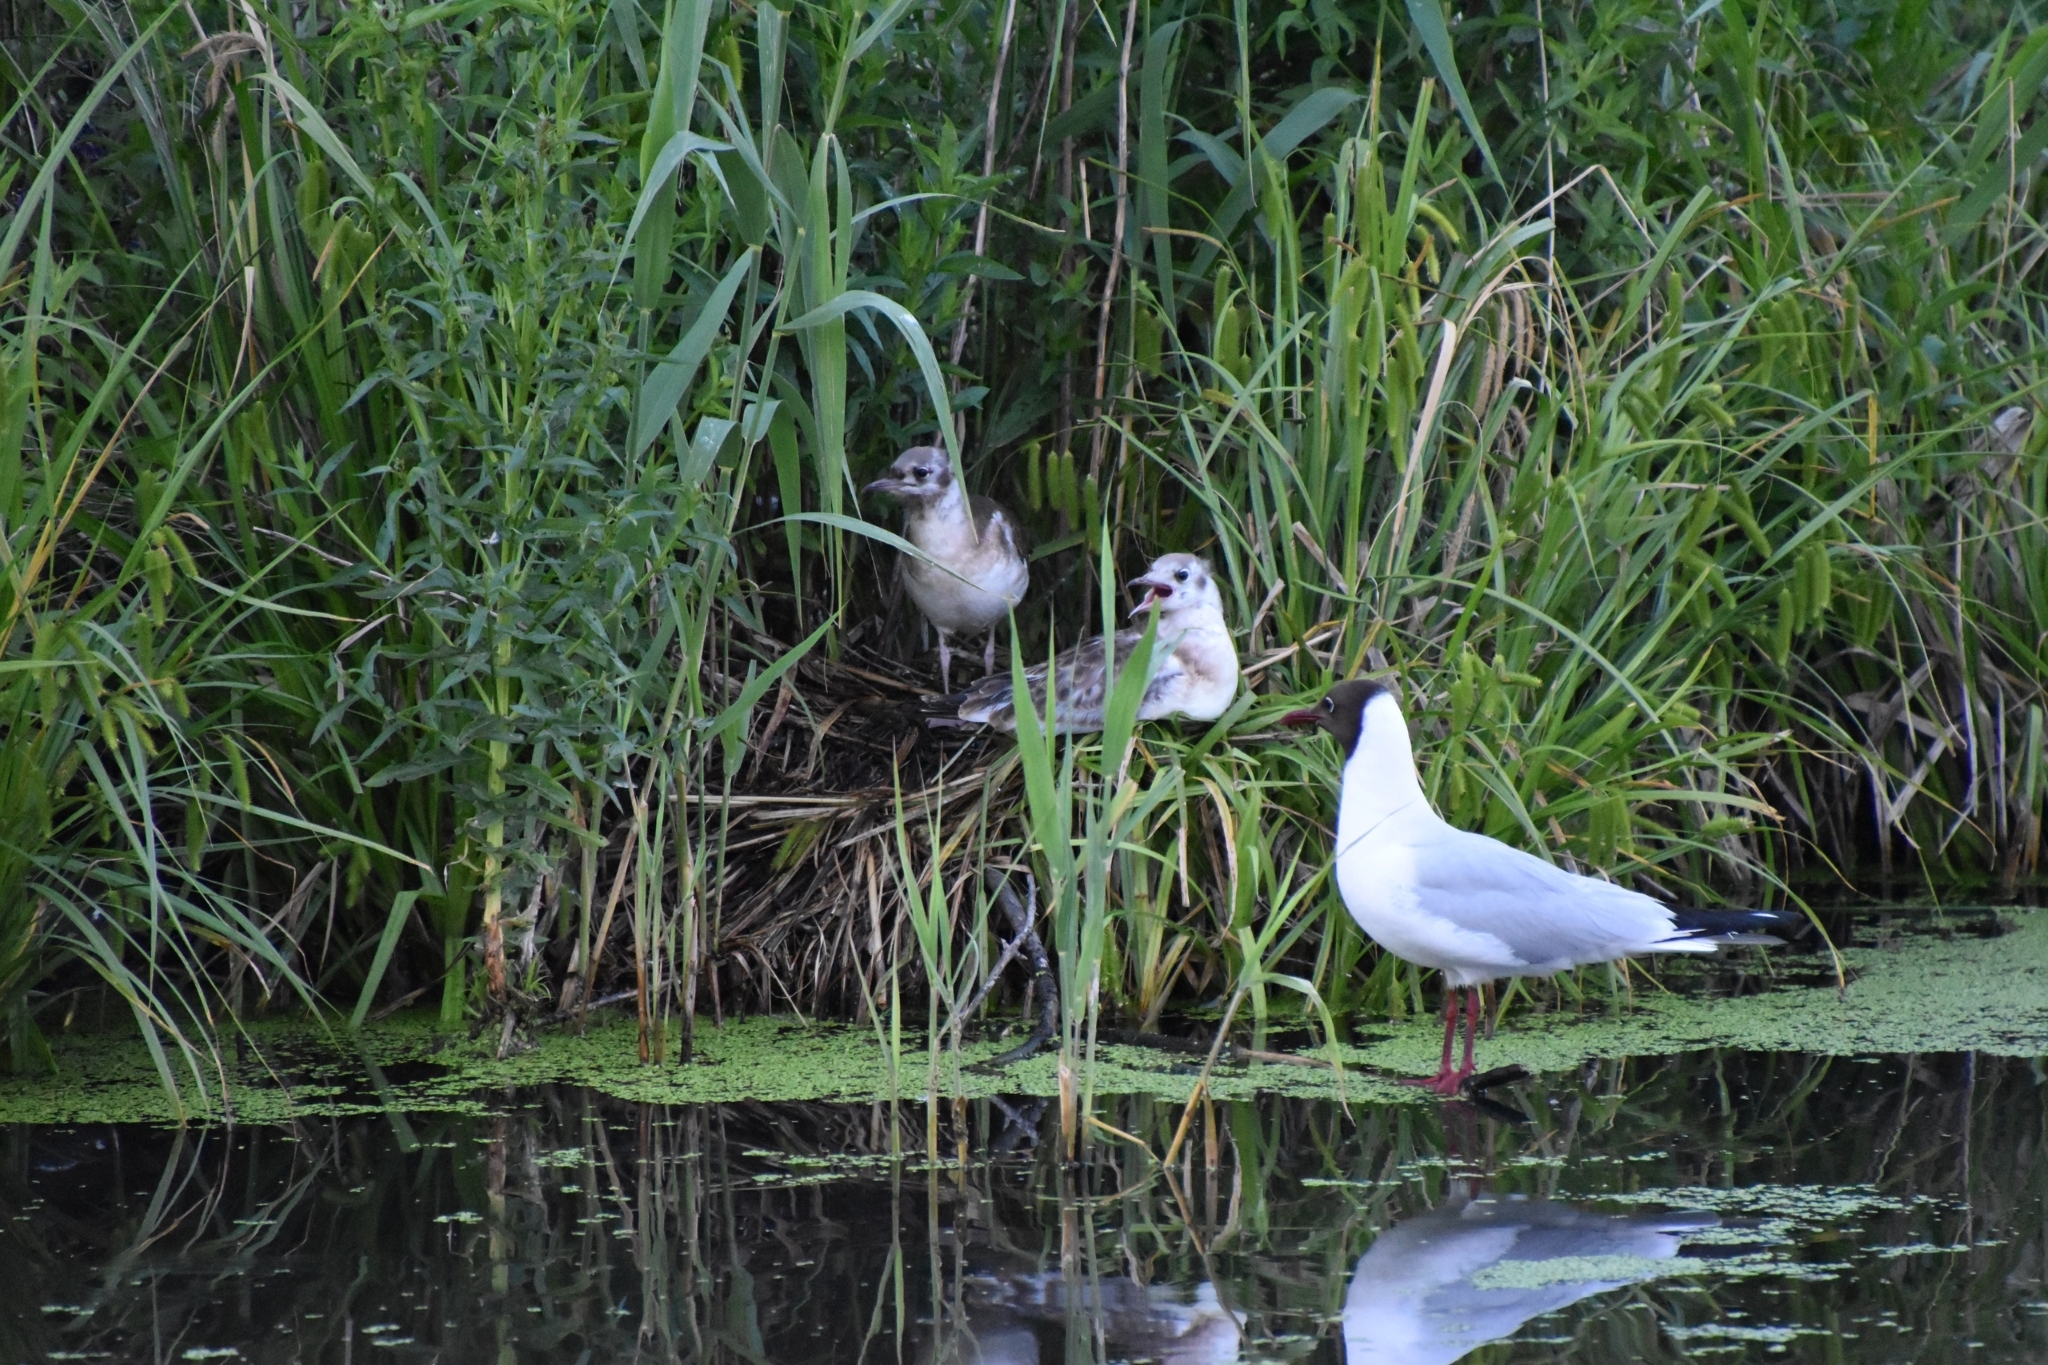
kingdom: Animalia
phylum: Chordata
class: Aves
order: Charadriiformes
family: Laridae
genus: Chroicocephalus
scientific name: Chroicocephalus ridibundus
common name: Black-headed gull
